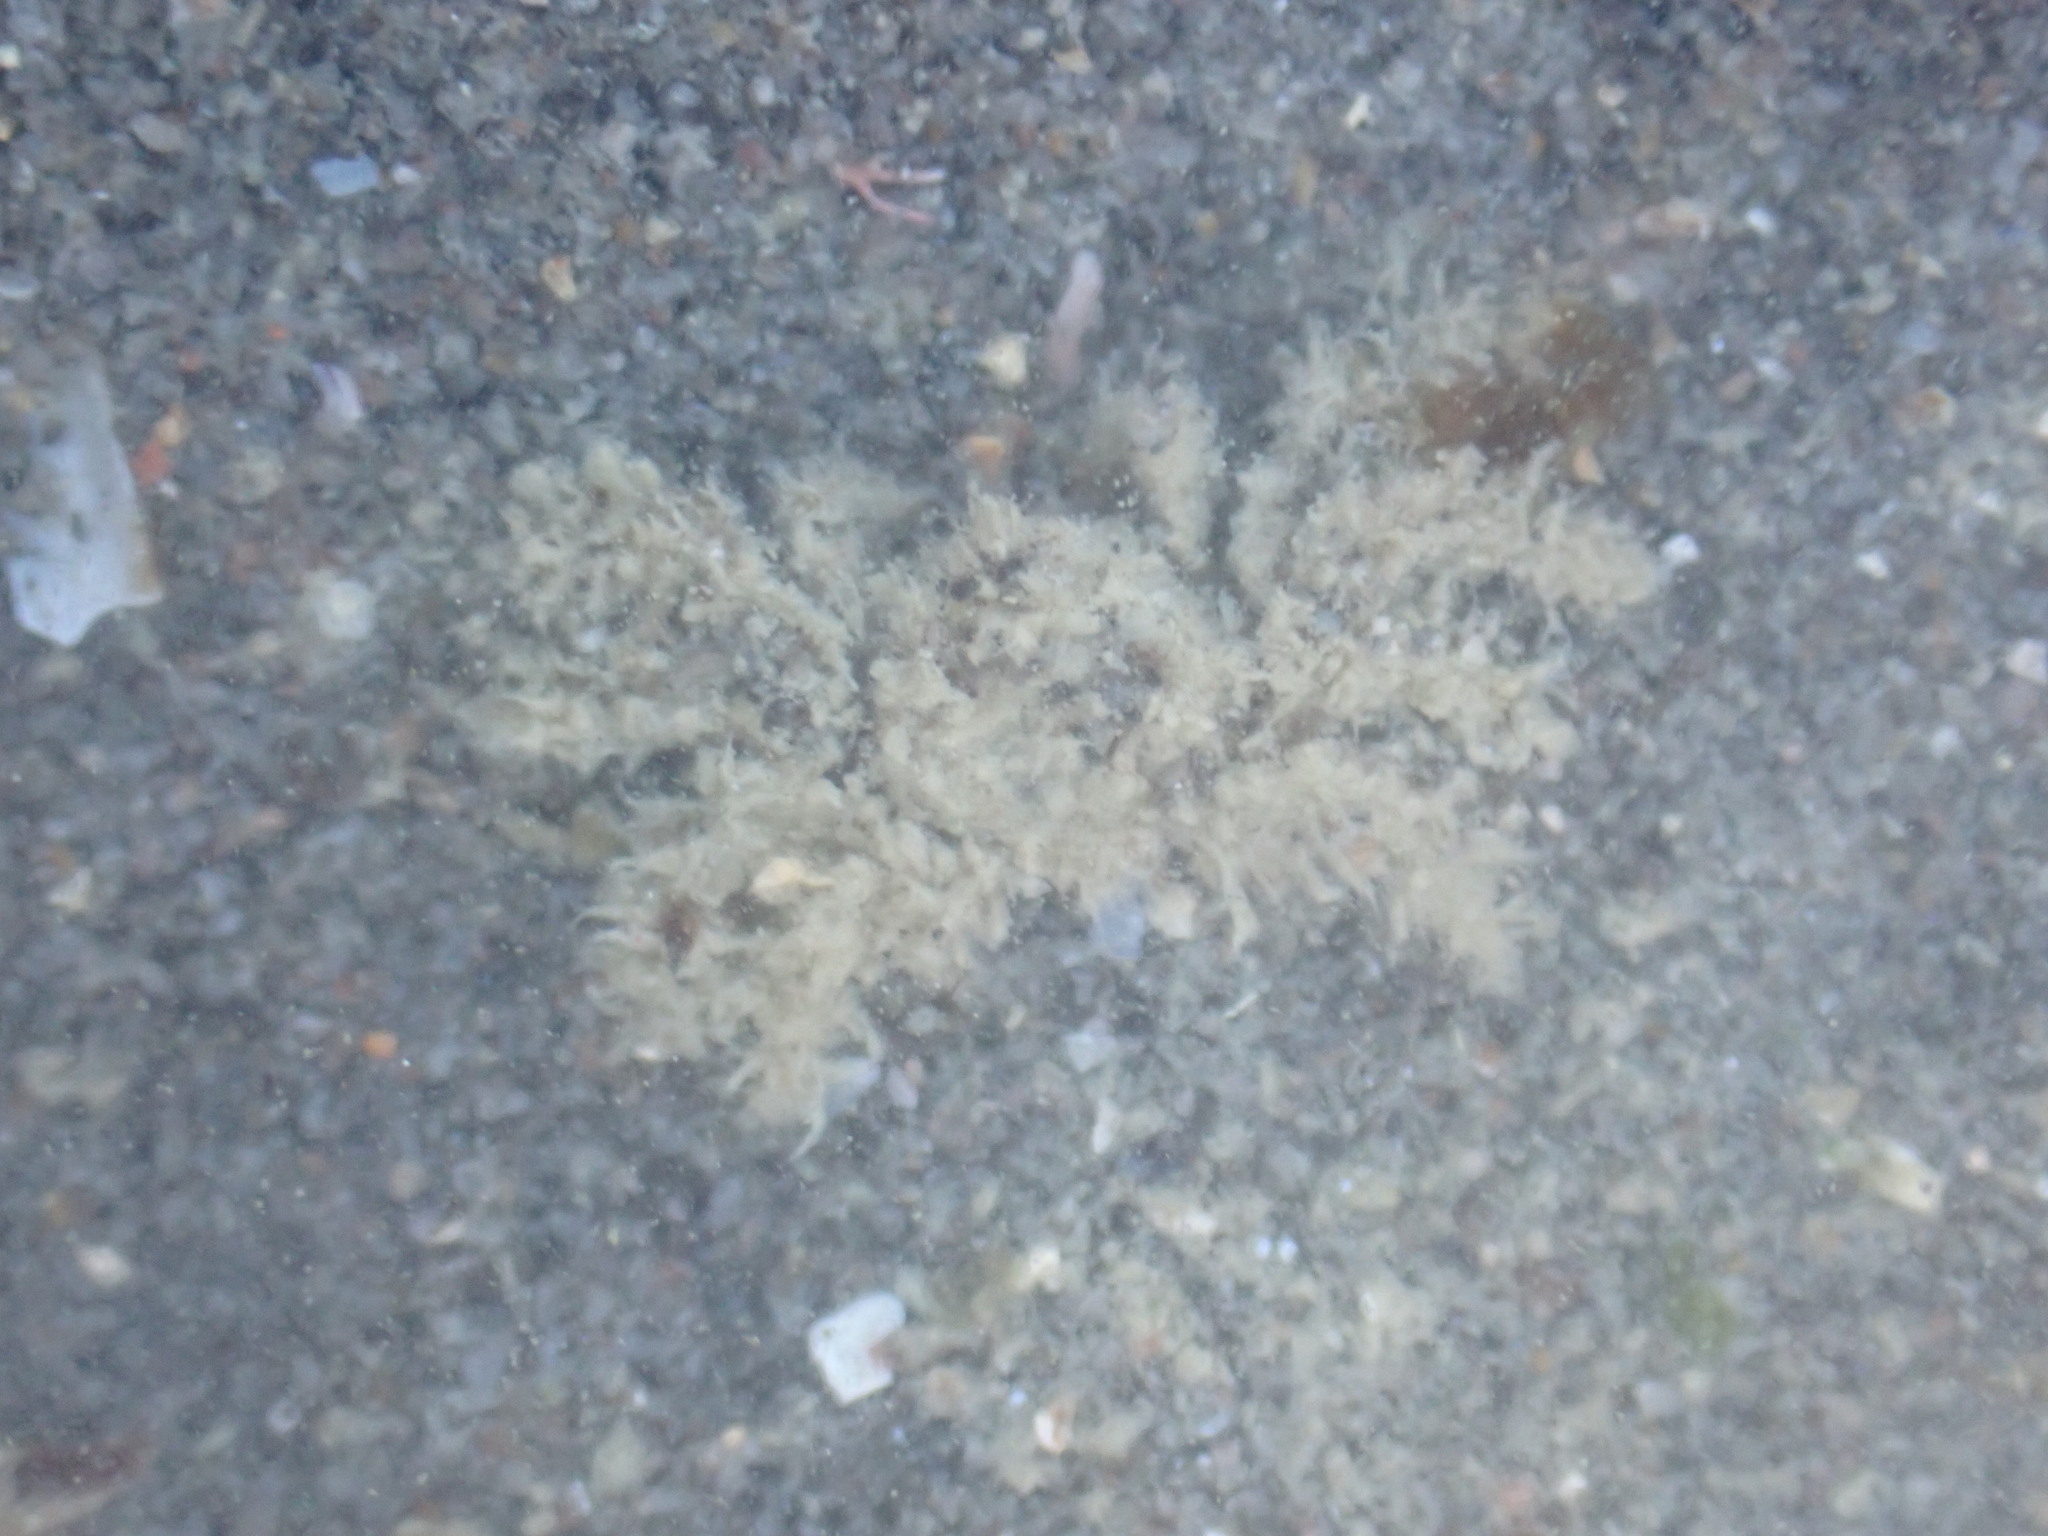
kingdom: Animalia
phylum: Arthropoda
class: Malacostraca
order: Decapoda
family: Hymenosomatidae
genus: Neohymenicus
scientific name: Neohymenicus pubescens
